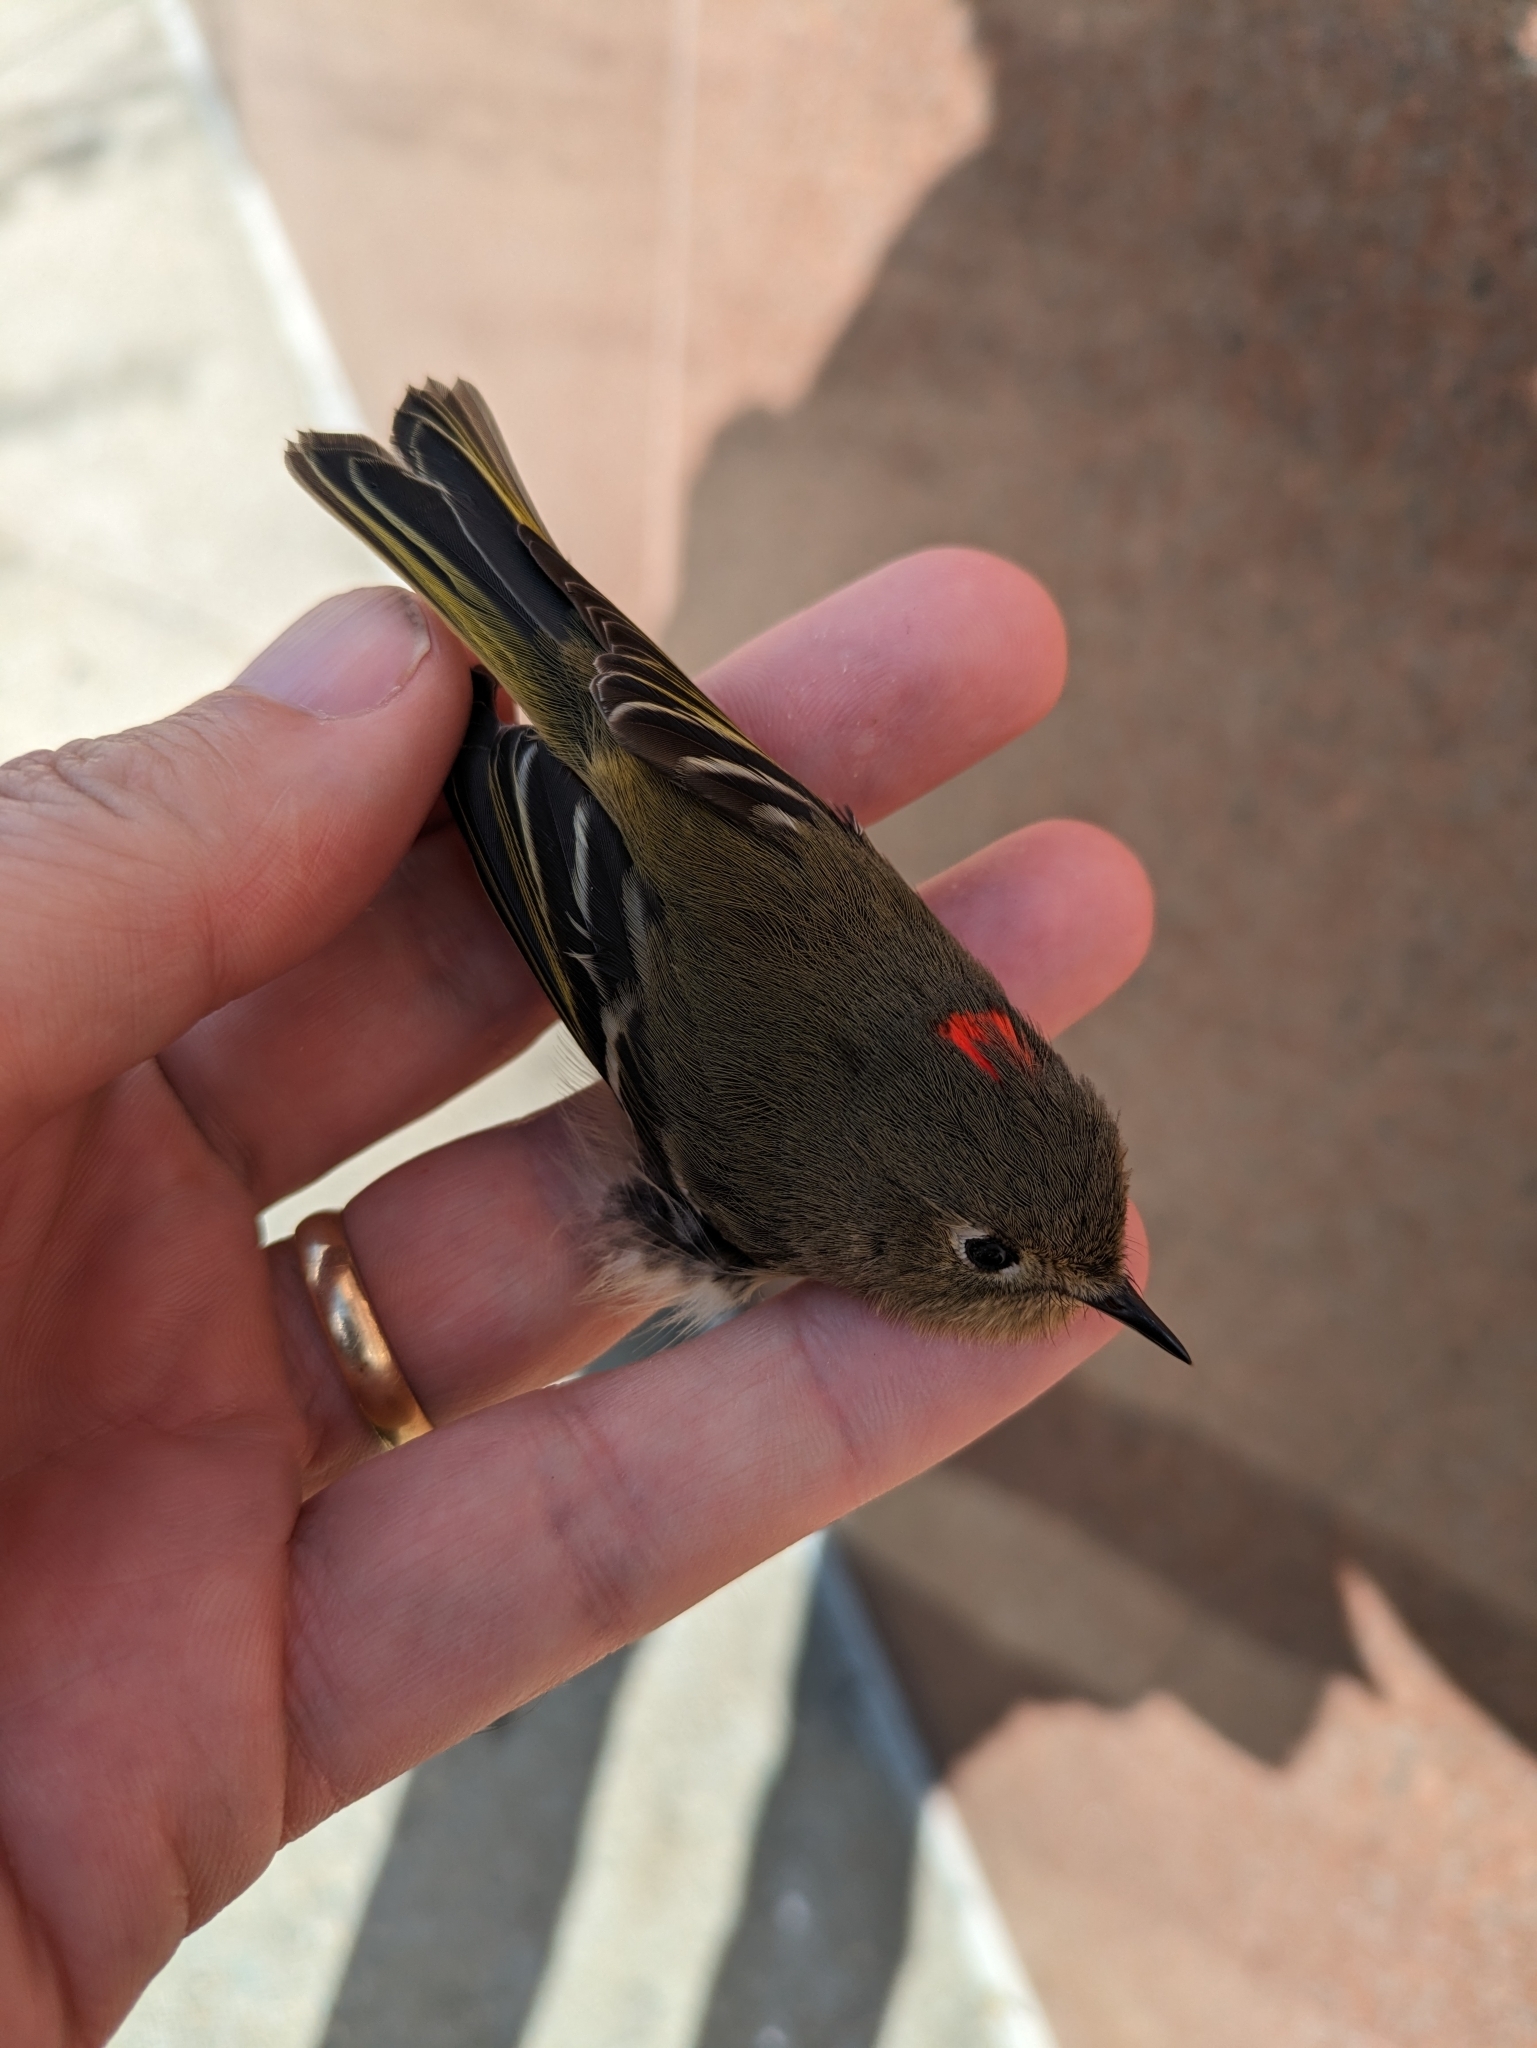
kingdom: Animalia
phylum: Chordata
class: Aves
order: Passeriformes
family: Regulidae
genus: Regulus
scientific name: Regulus calendula
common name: Ruby-crowned kinglet
